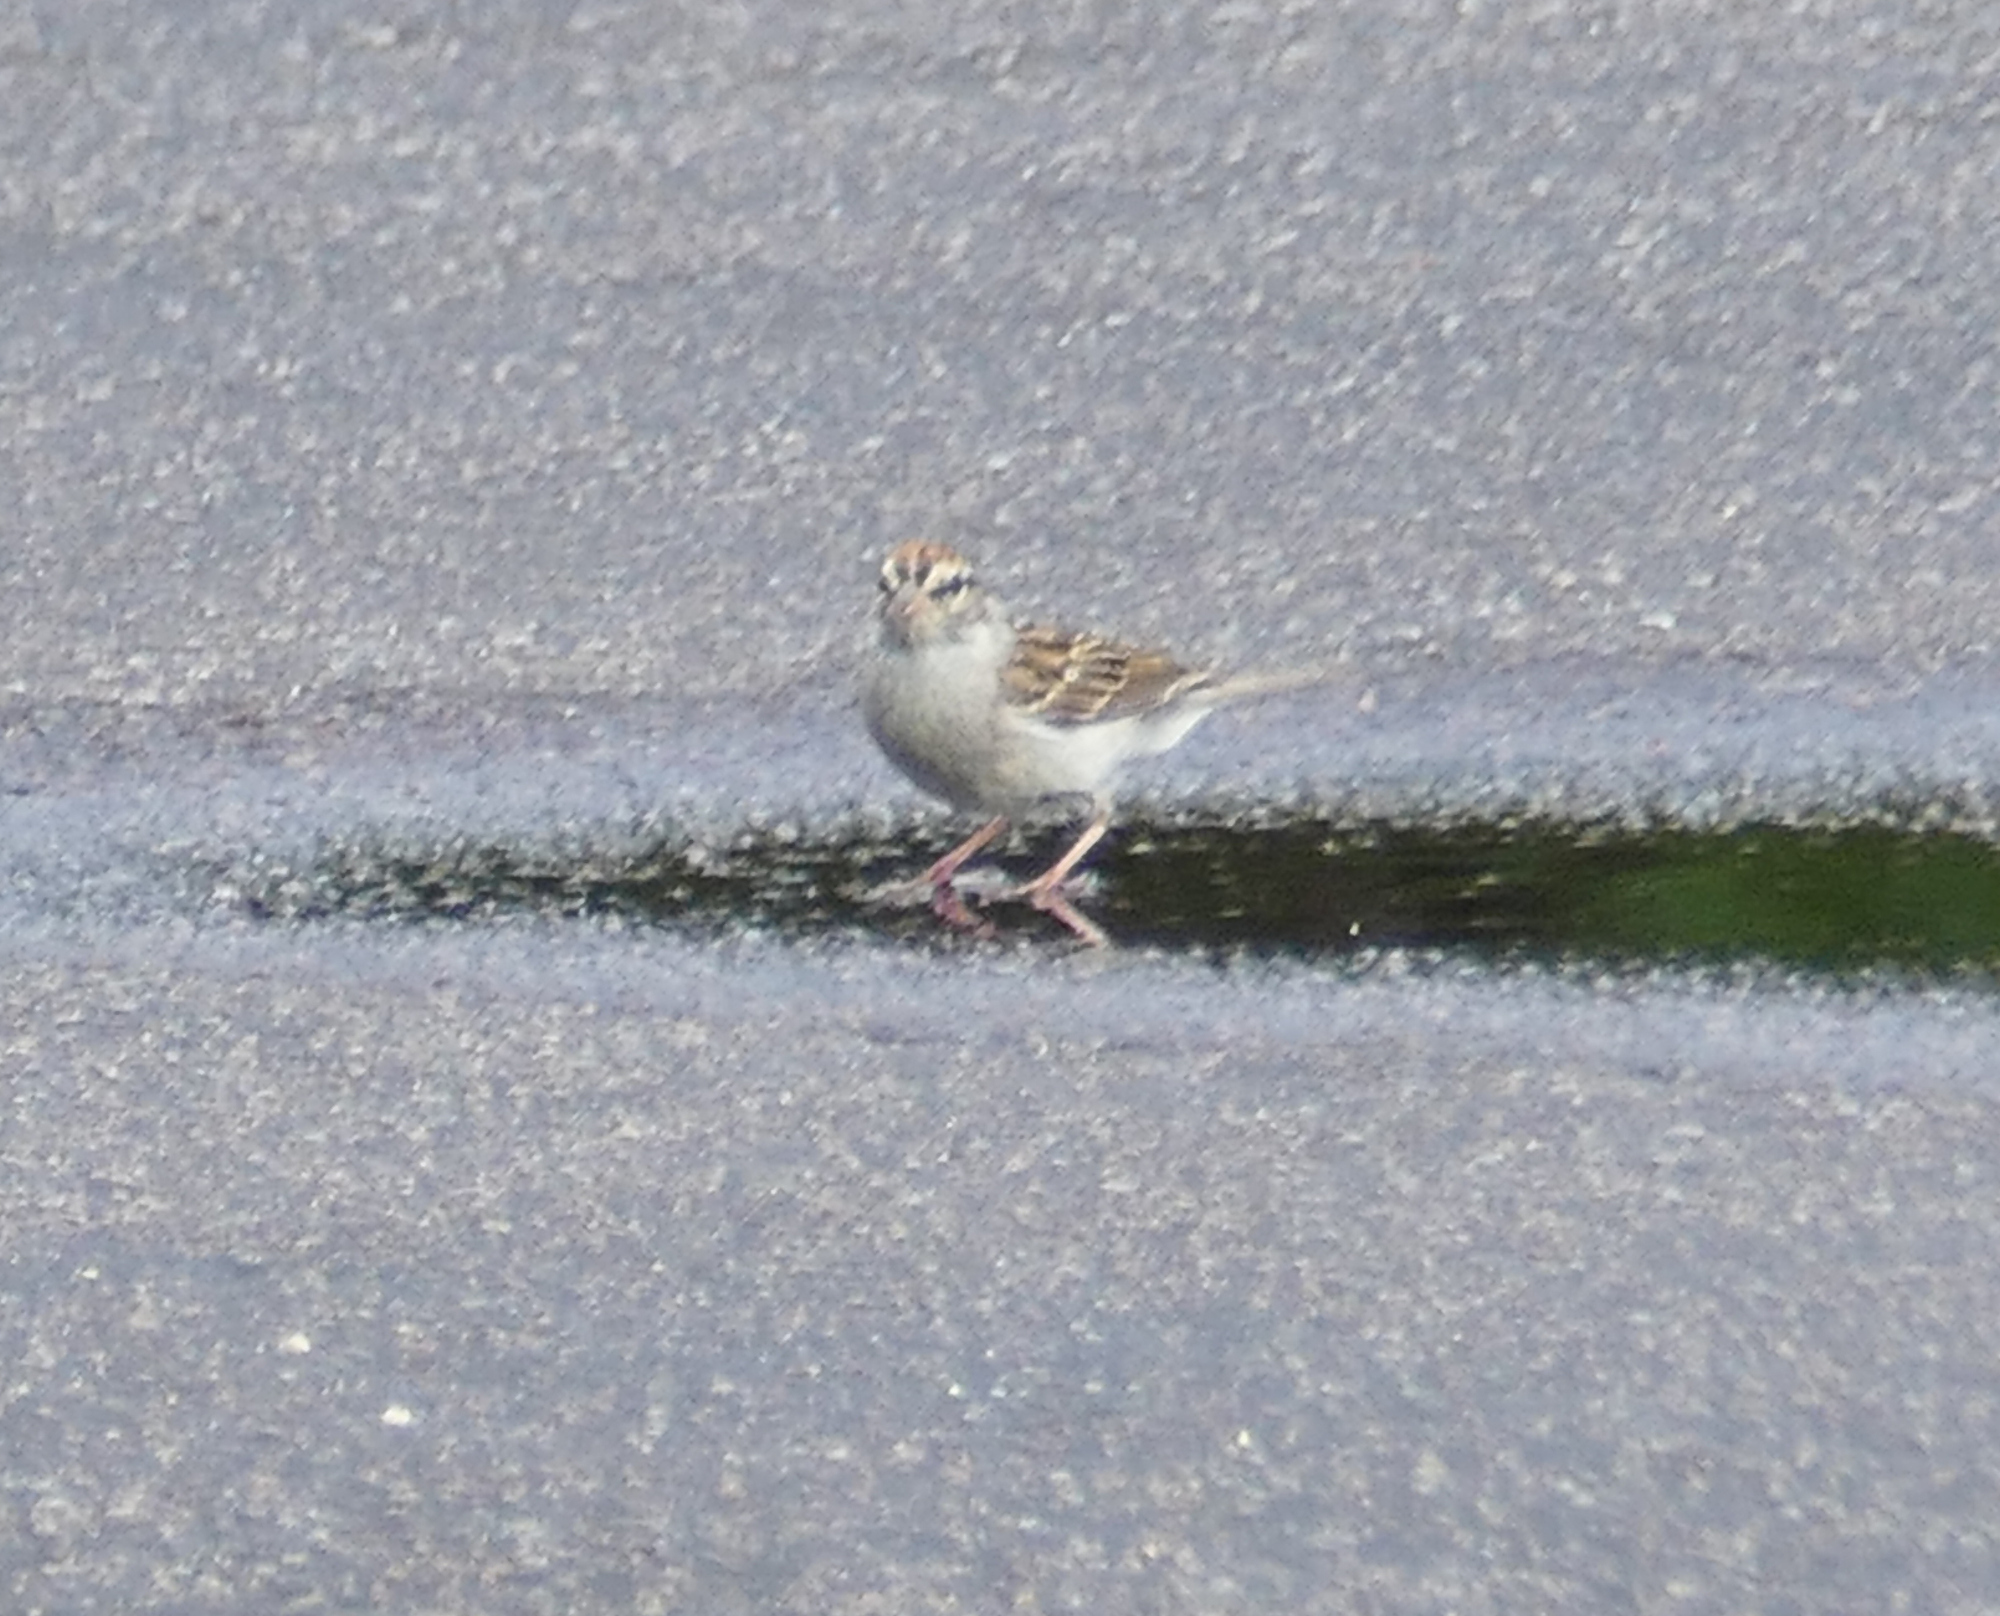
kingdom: Animalia
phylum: Chordata
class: Aves
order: Passeriformes
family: Passerellidae
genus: Spizella
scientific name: Spizella passerina
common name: Chipping sparrow
